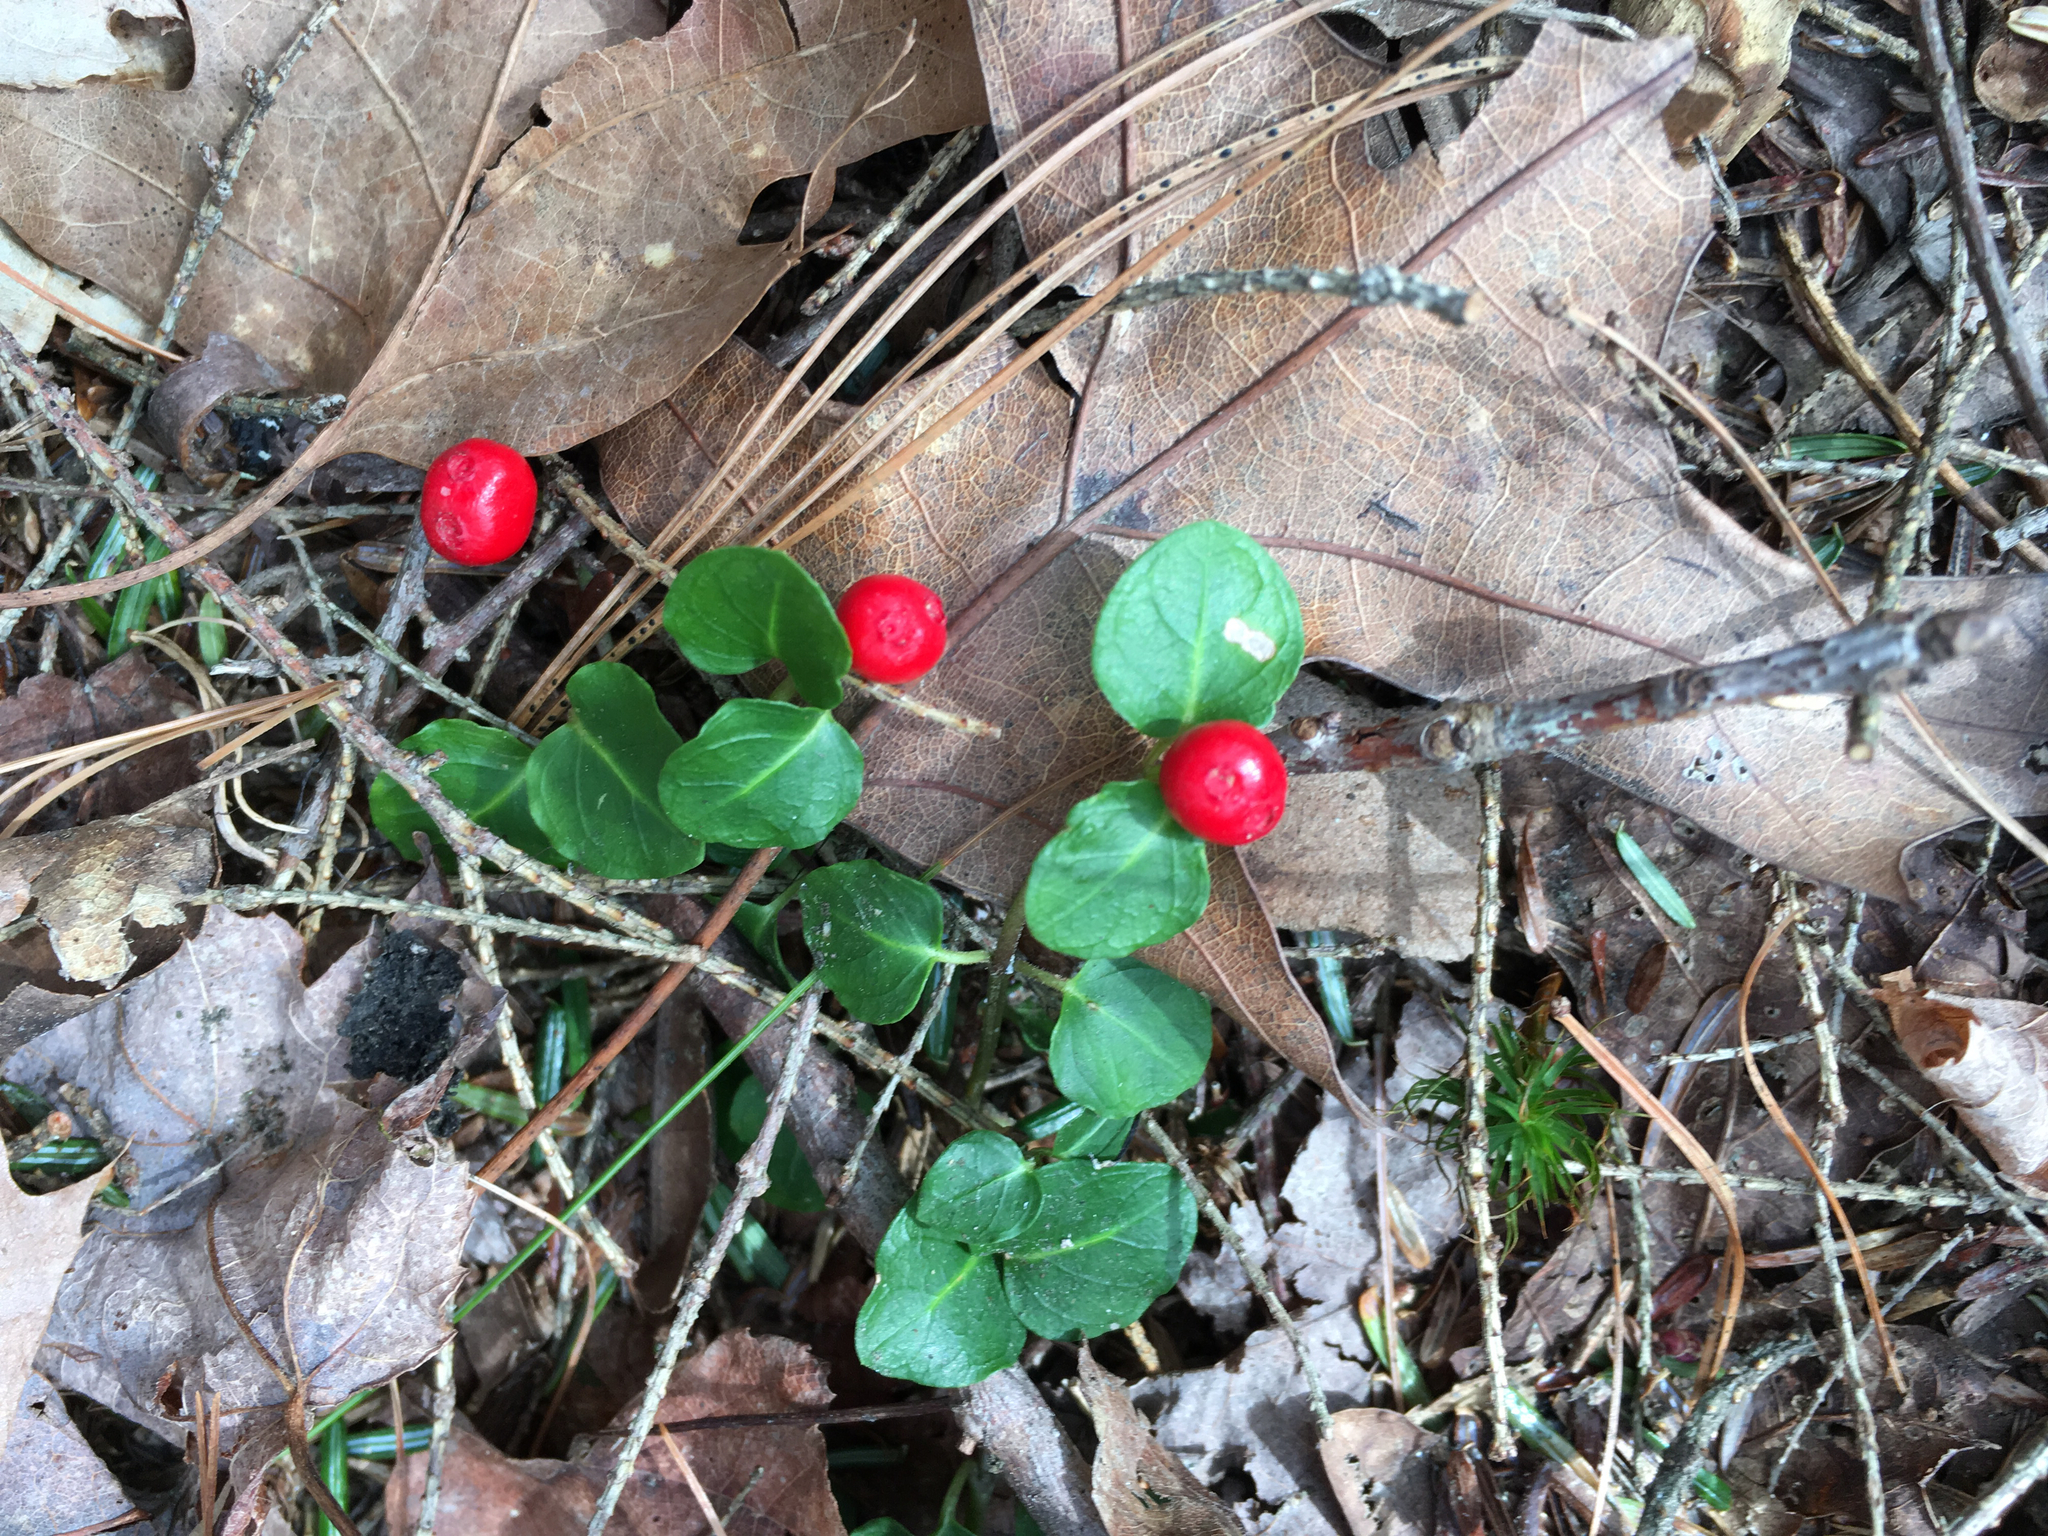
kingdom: Plantae
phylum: Tracheophyta
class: Magnoliopsida
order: Gentianales
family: Rubiaceae
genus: Mitchella
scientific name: Mitchella repens
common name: Partridge-berry
